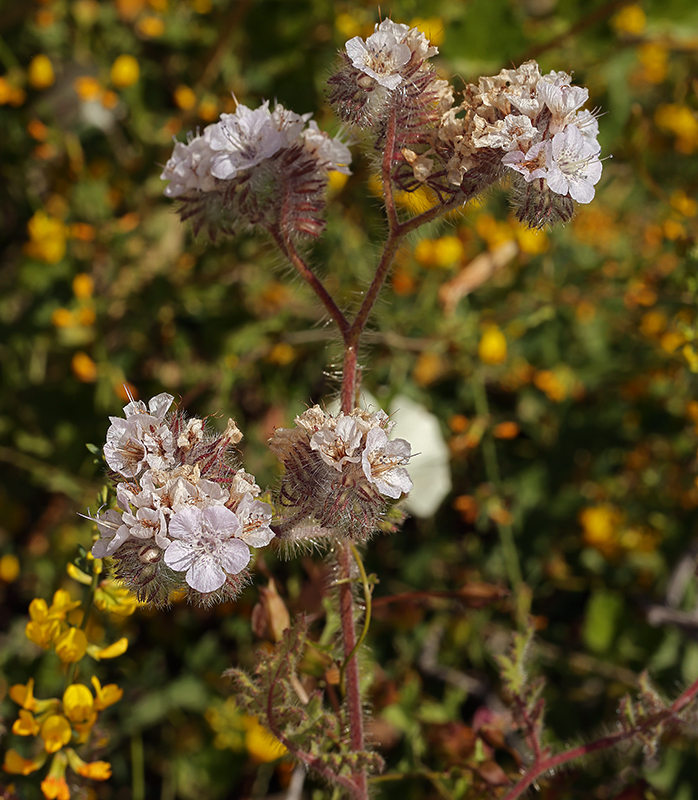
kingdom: Plantae
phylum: Tracheophyta
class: Magnoliopsida
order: Boraginales
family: Hydrophyllaceae
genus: Phacelia
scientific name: Phacelia cicutaria
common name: Caterpillar phacelia
